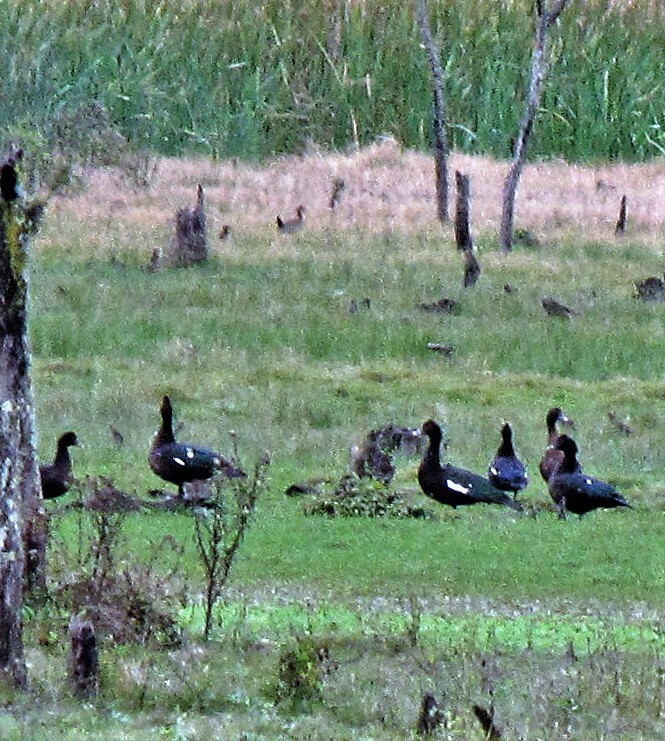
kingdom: Animalia
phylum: Chordata
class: Aves
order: Anseriformes
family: Anatidae
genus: Cairina
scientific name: Cairina moschata
